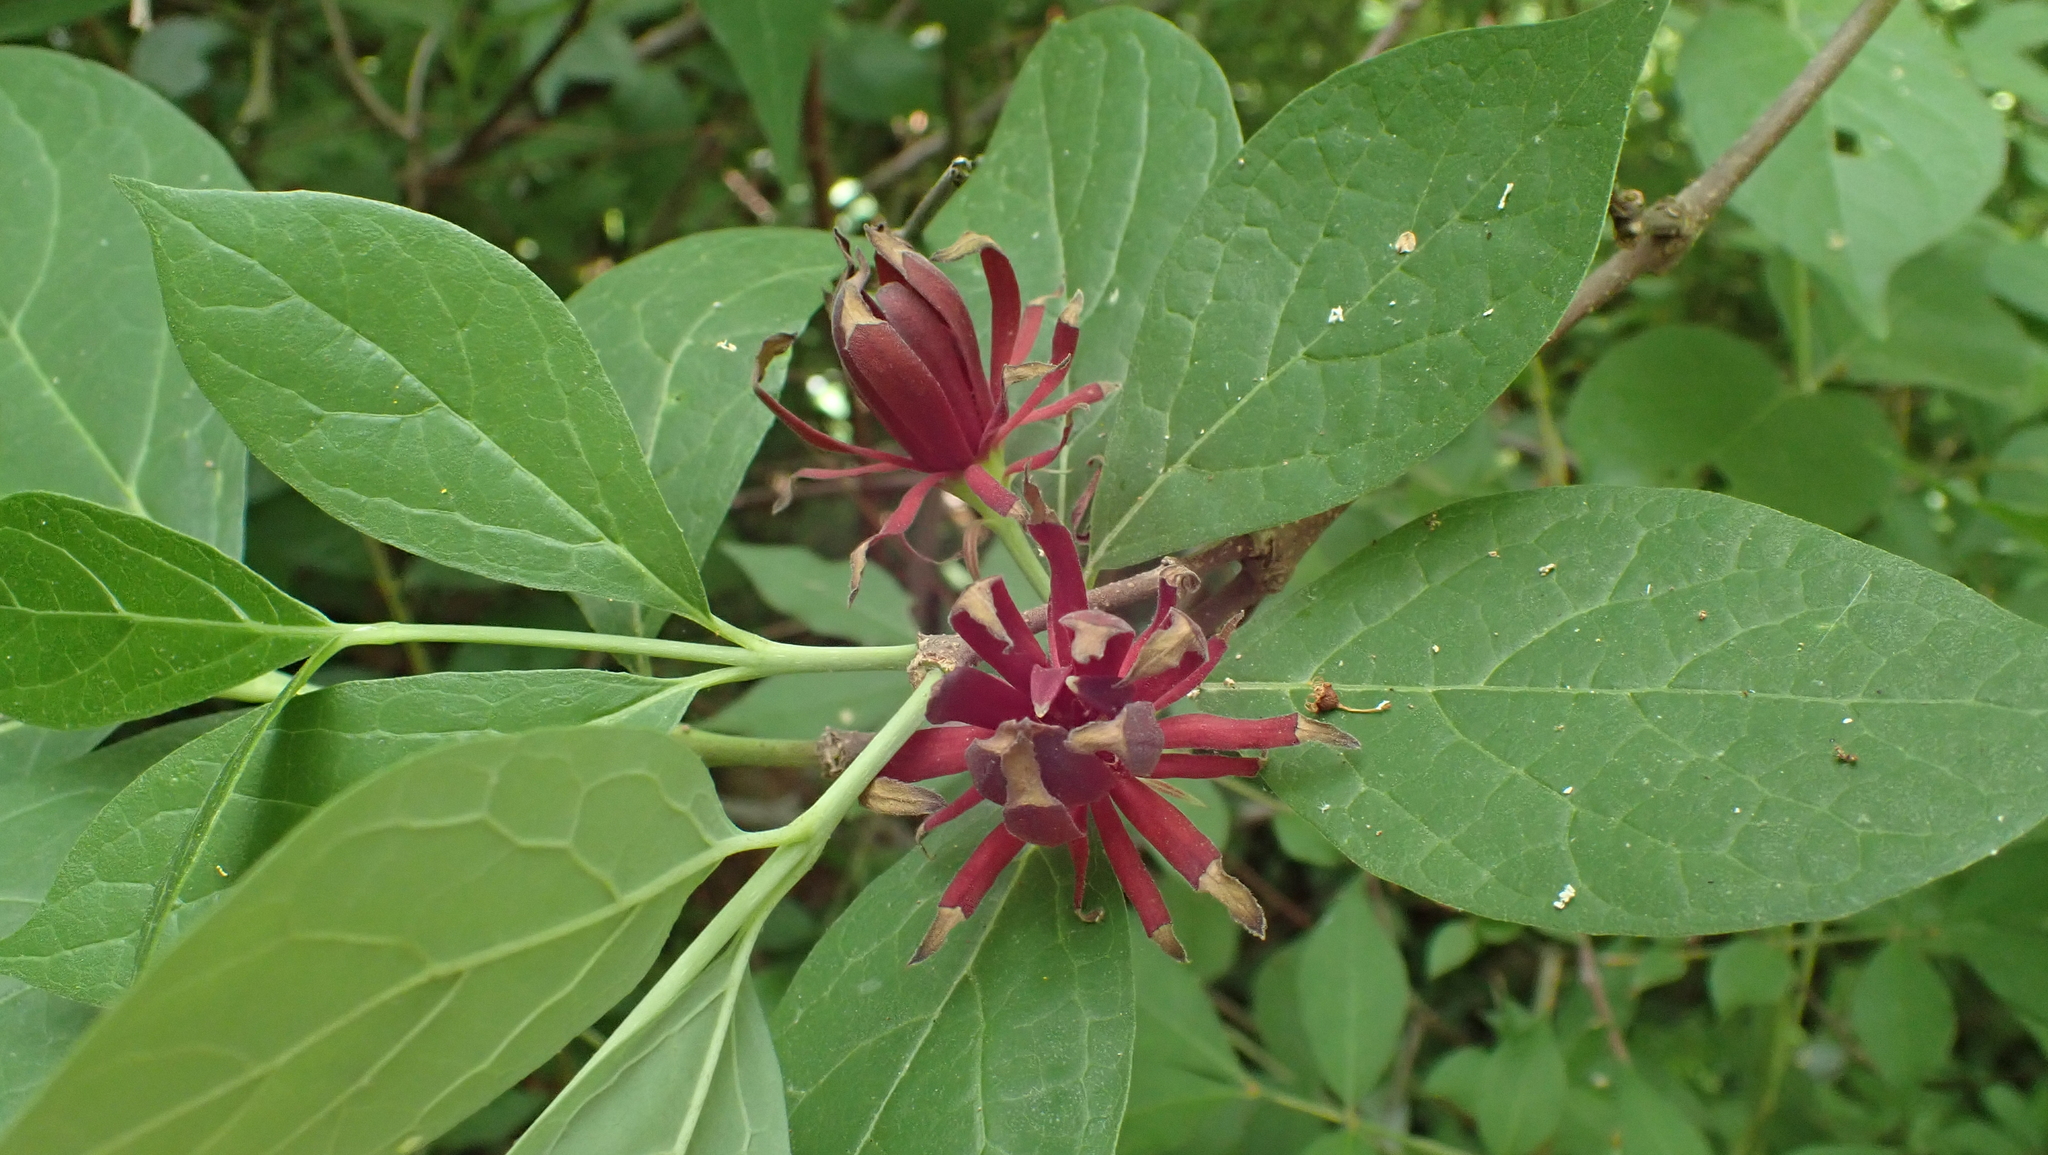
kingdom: Plantae
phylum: Tracheophyta
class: Magnoliopsida
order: Laurales
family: Calycanthaceae
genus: Calycanthus
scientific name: Calycanthus floridus
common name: Carolina-allspice
